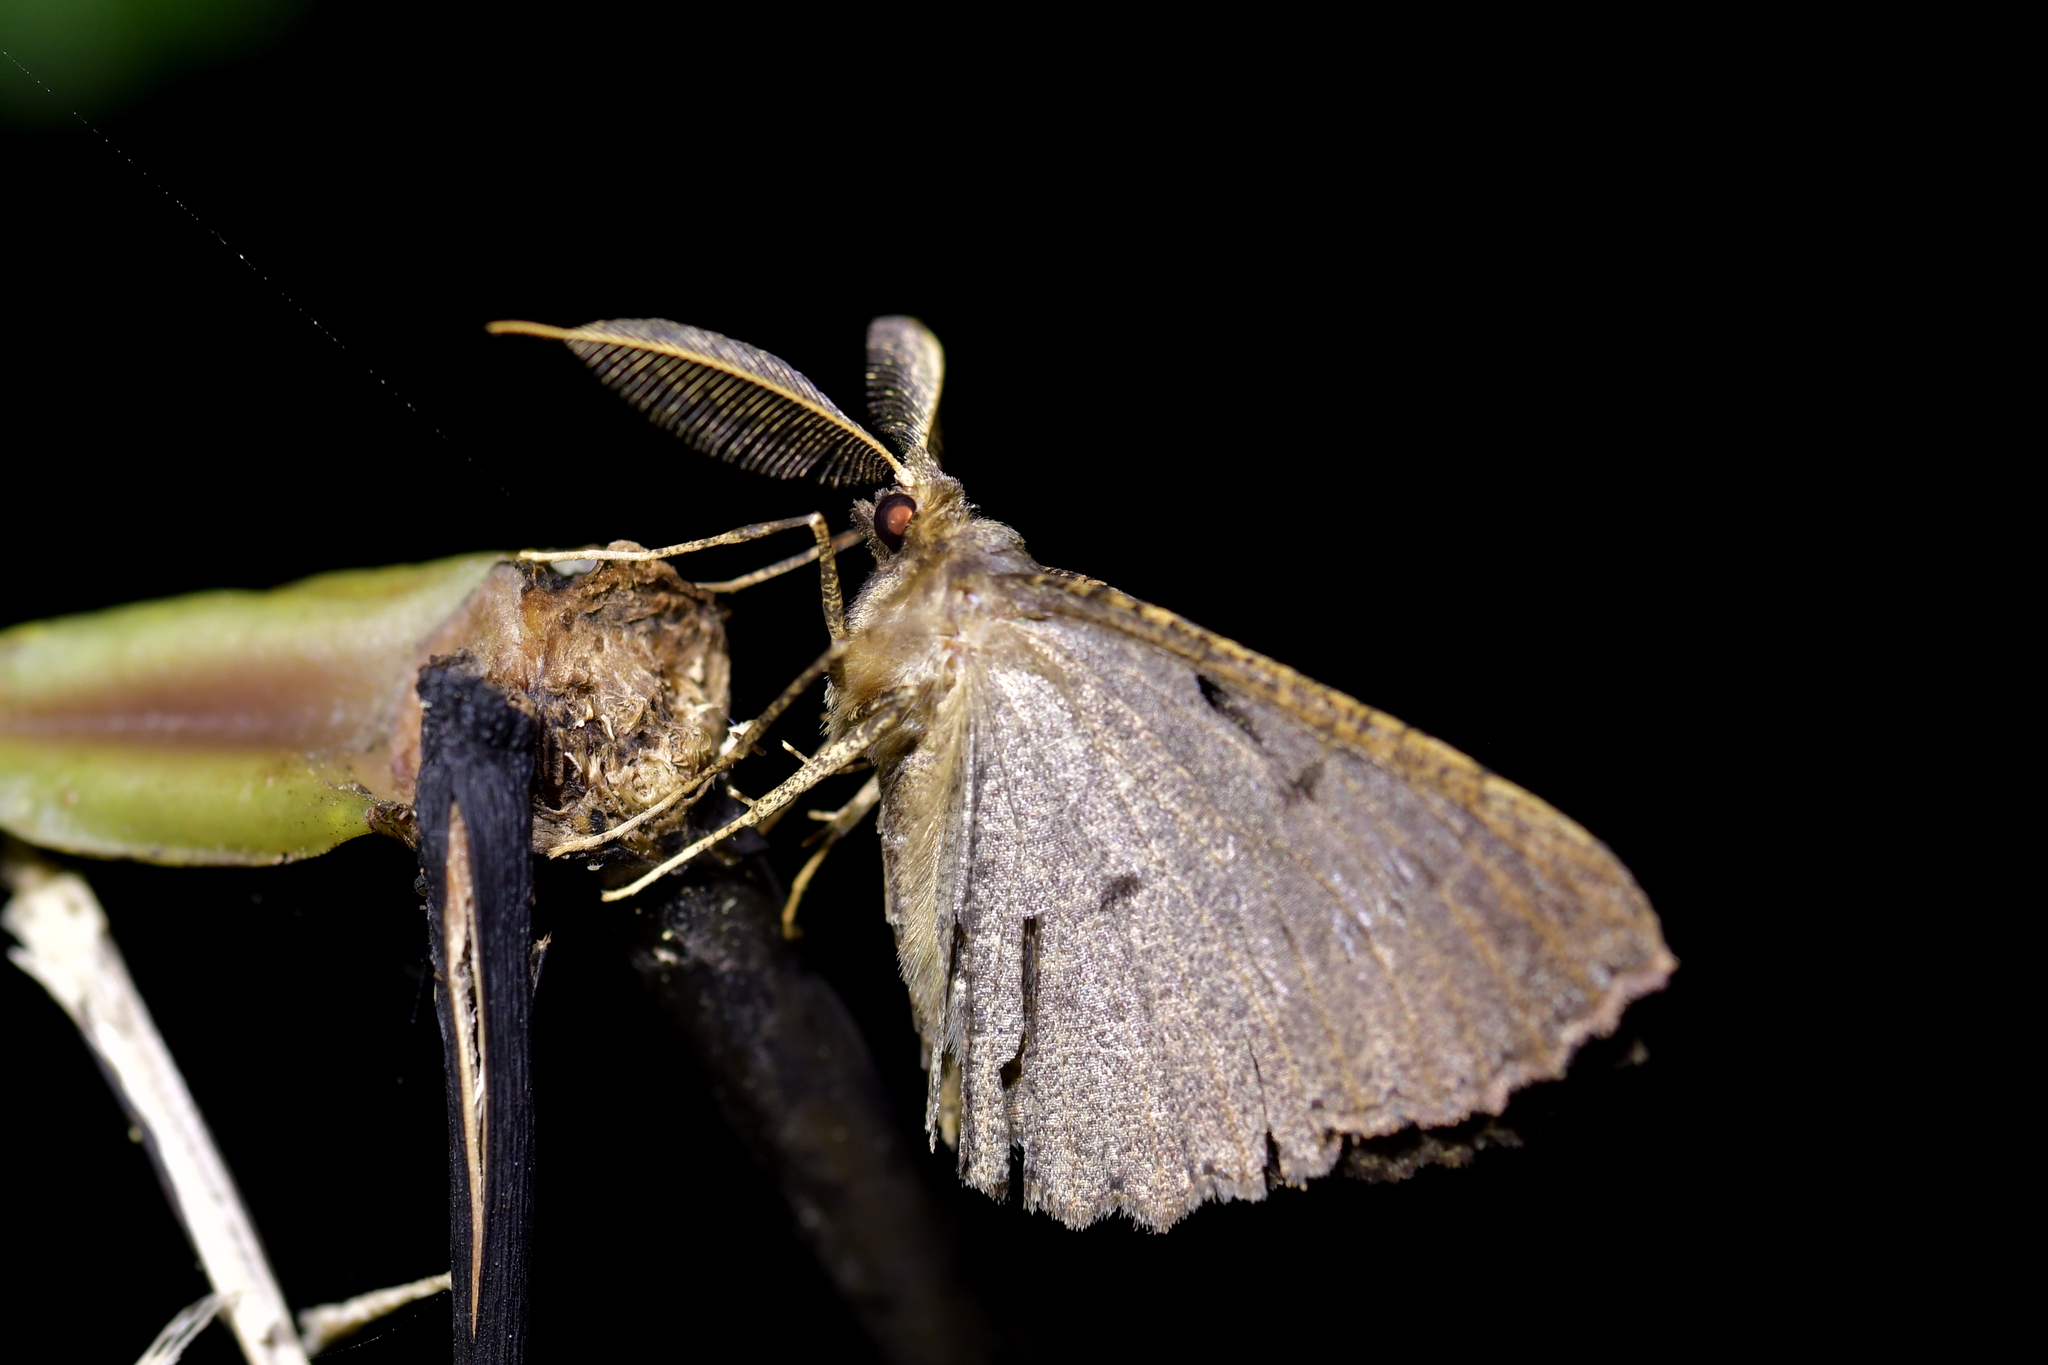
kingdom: Animalia
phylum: Arthropoda
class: Insecta
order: Lepidoptera
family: Geometridae
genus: Cleora
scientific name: Cleora scriptaria
